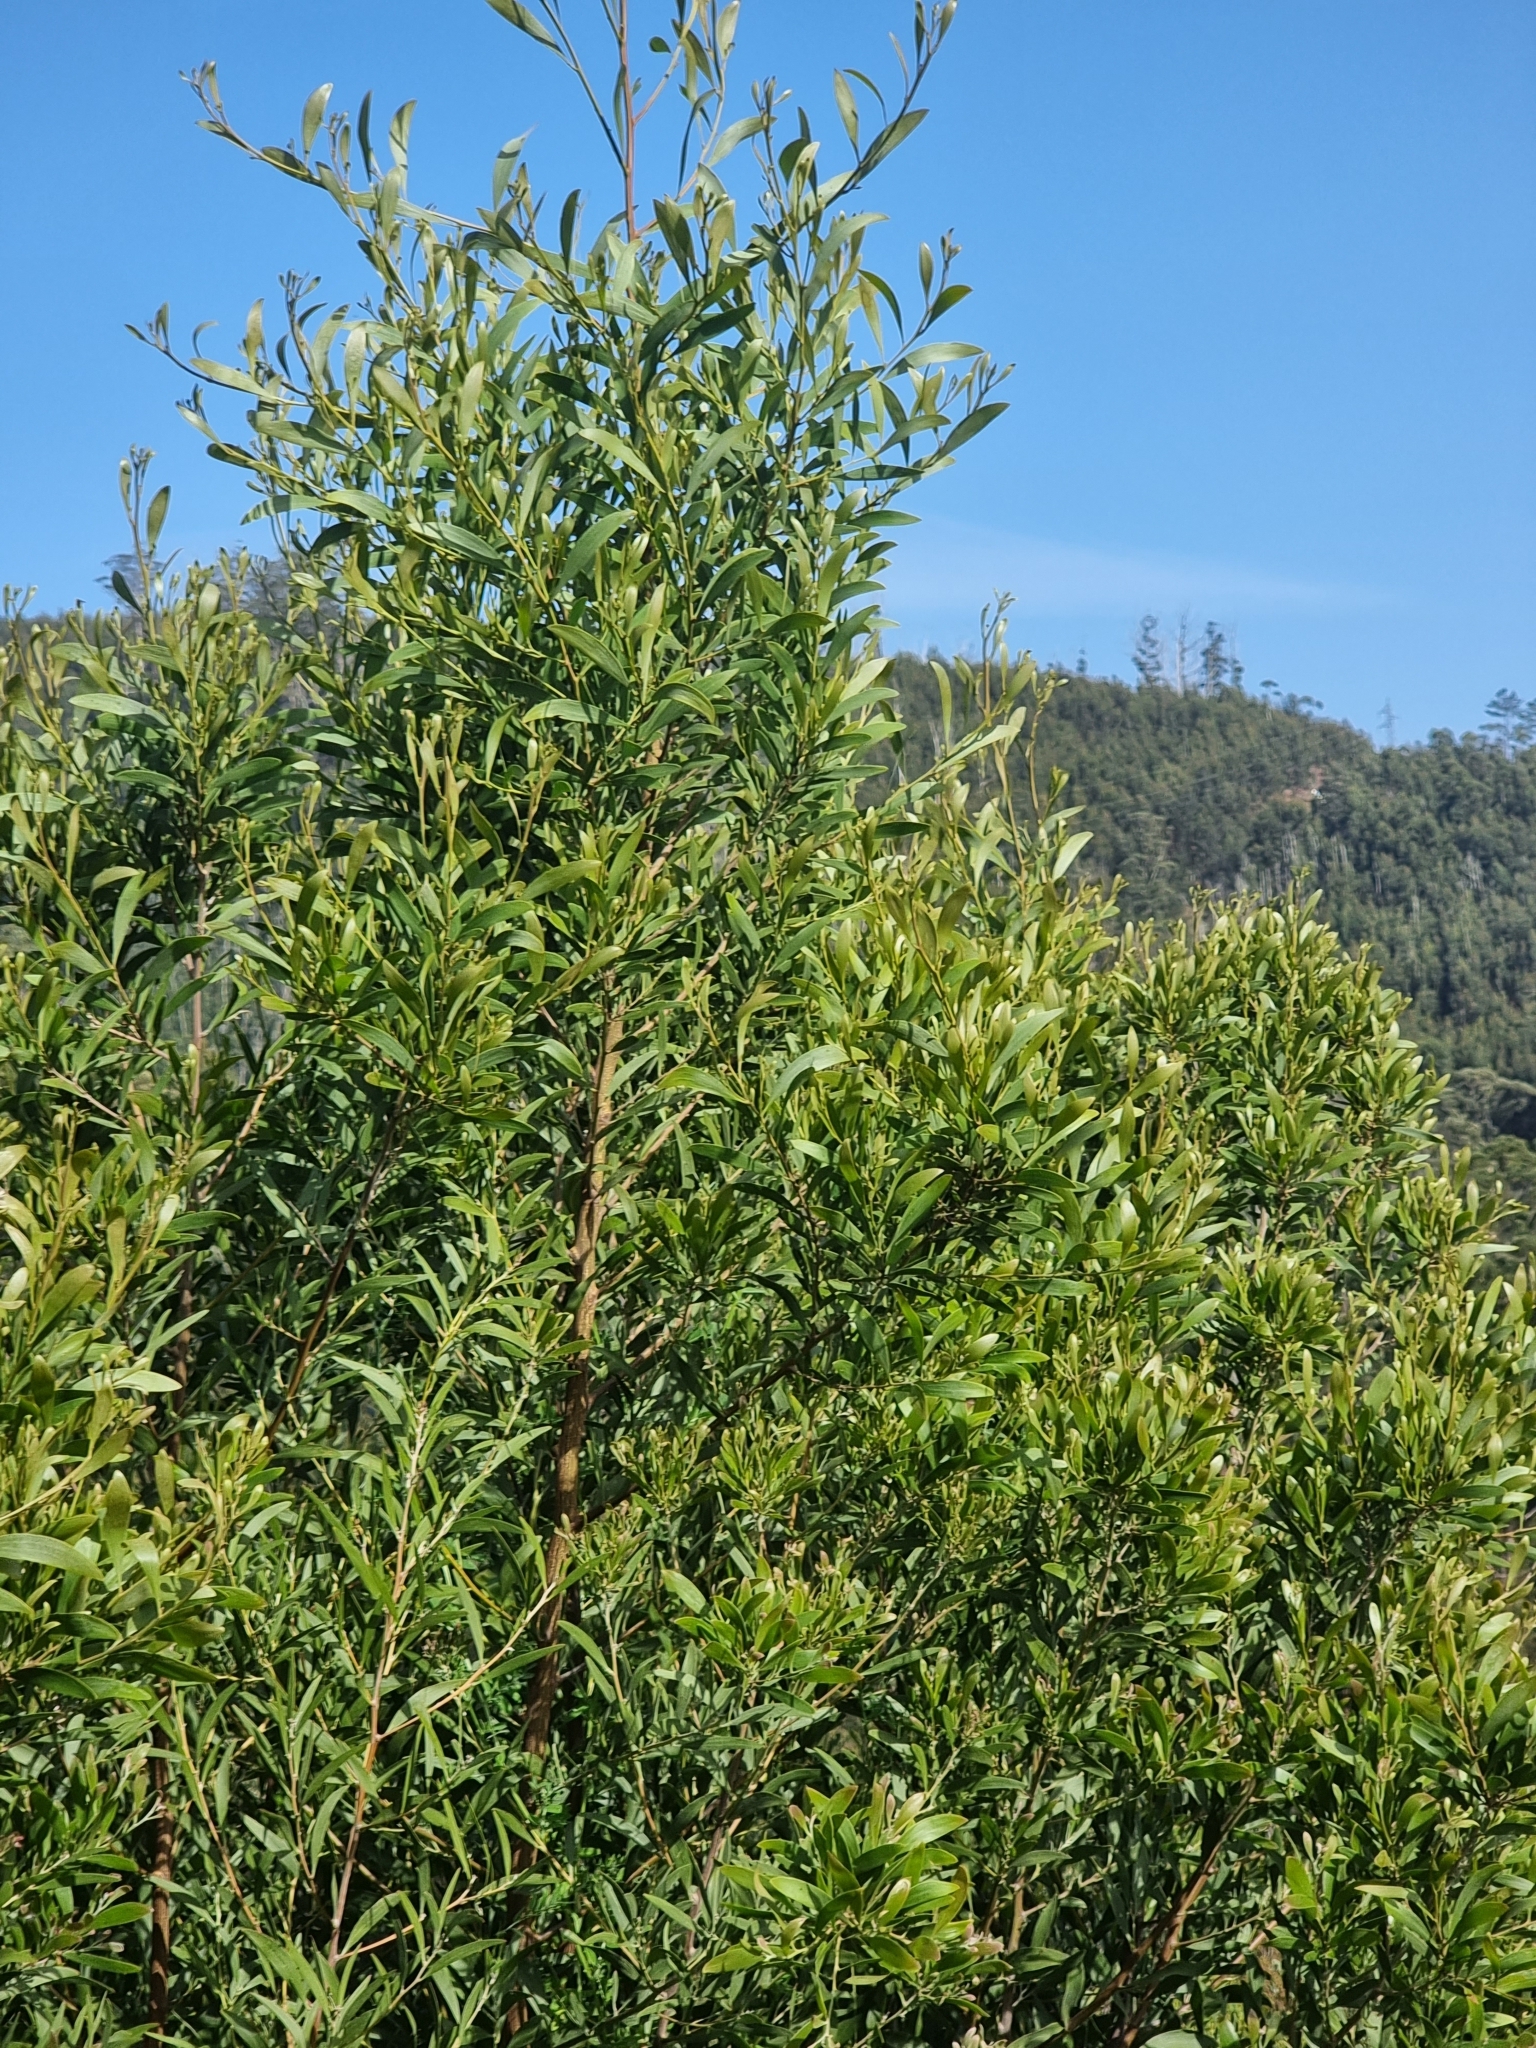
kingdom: Plantae
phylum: Tracheophyta
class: Magnoliopsida
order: Fabales
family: Fabaceae
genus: Acacia
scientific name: Acacia melanoxylon
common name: Blackwood
